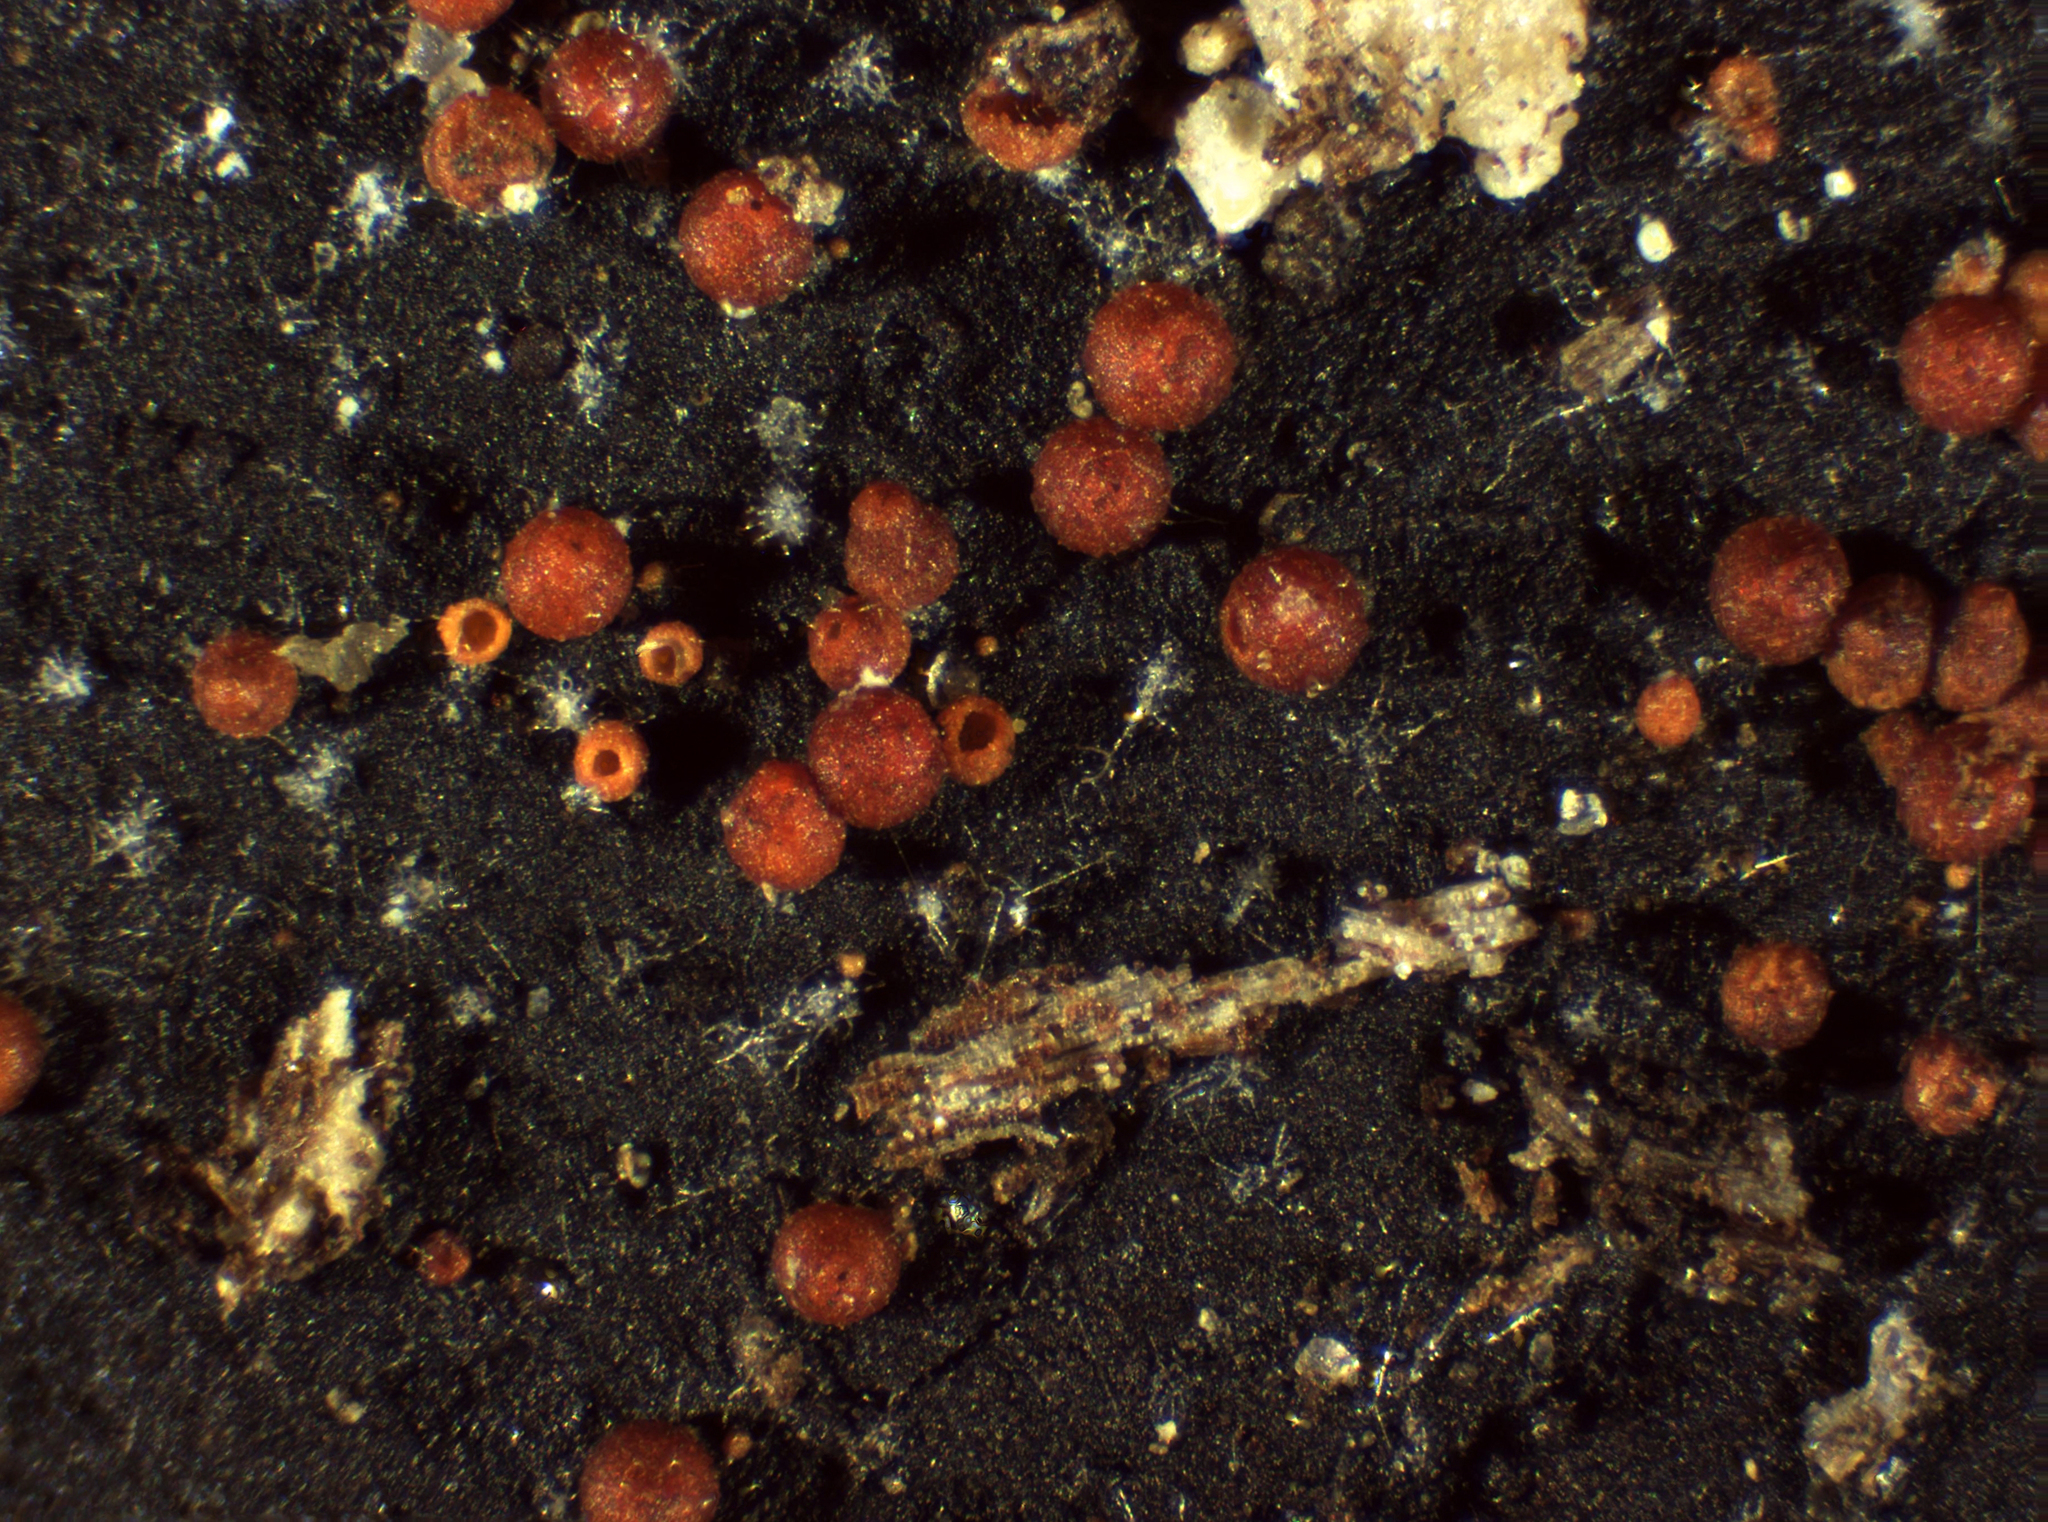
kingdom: Fungi
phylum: Ascomycota
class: Sordariomycetes
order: Hypocreales
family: Nectriaceae
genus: Dialonectria
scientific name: Dialonectria episphaeria
